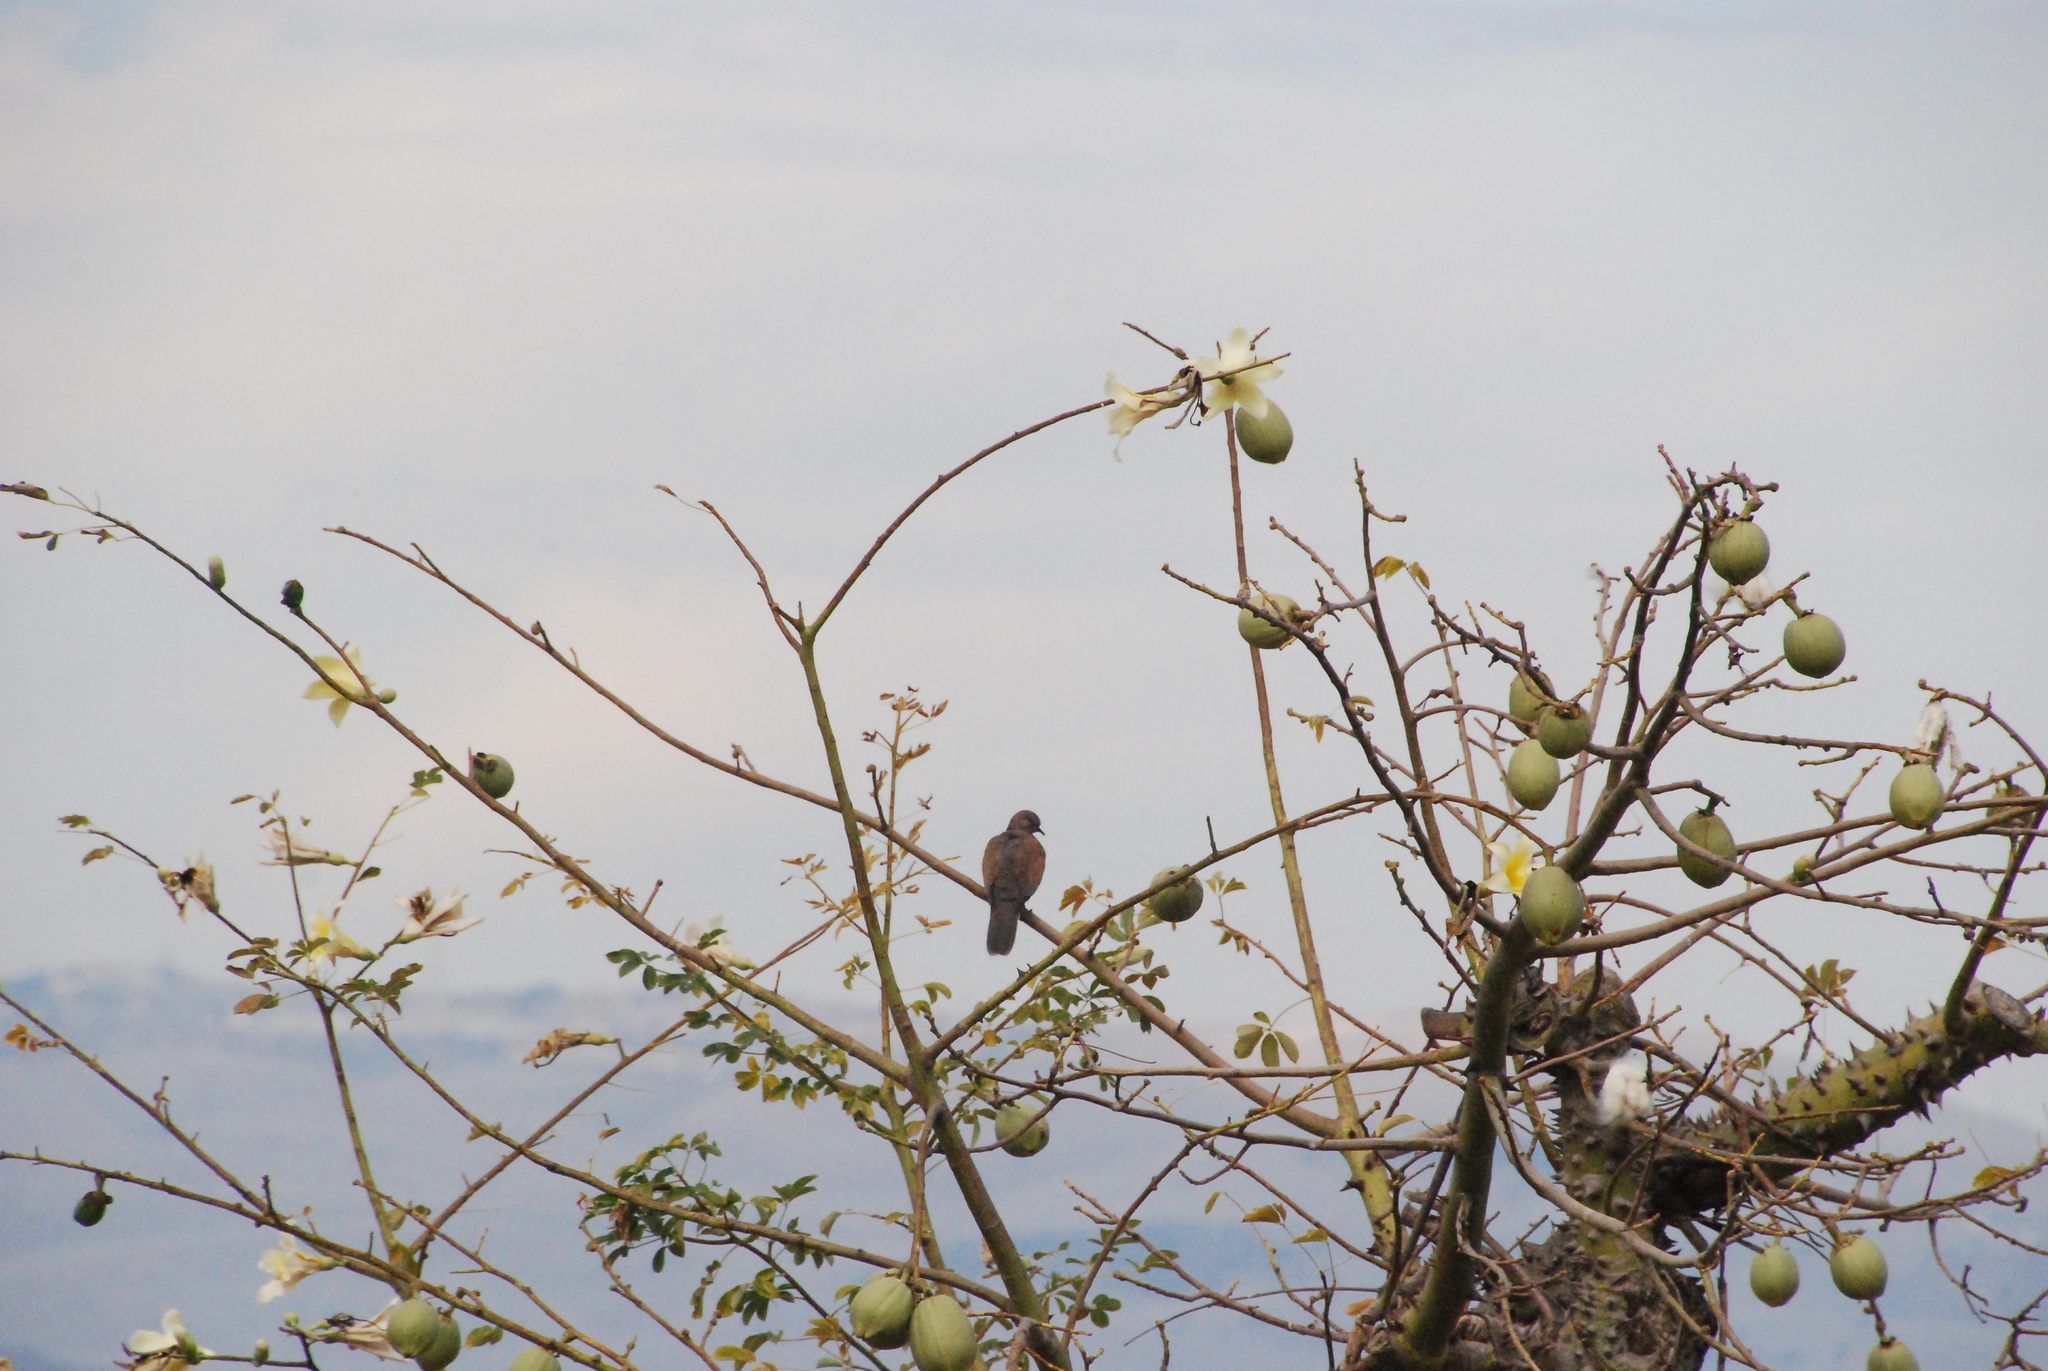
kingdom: Animalia
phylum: Chordata
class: Aves
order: Columbiformes
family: Columbidae
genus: Spilopelia
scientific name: Spilopelia senegalensis
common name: Laughing dove
